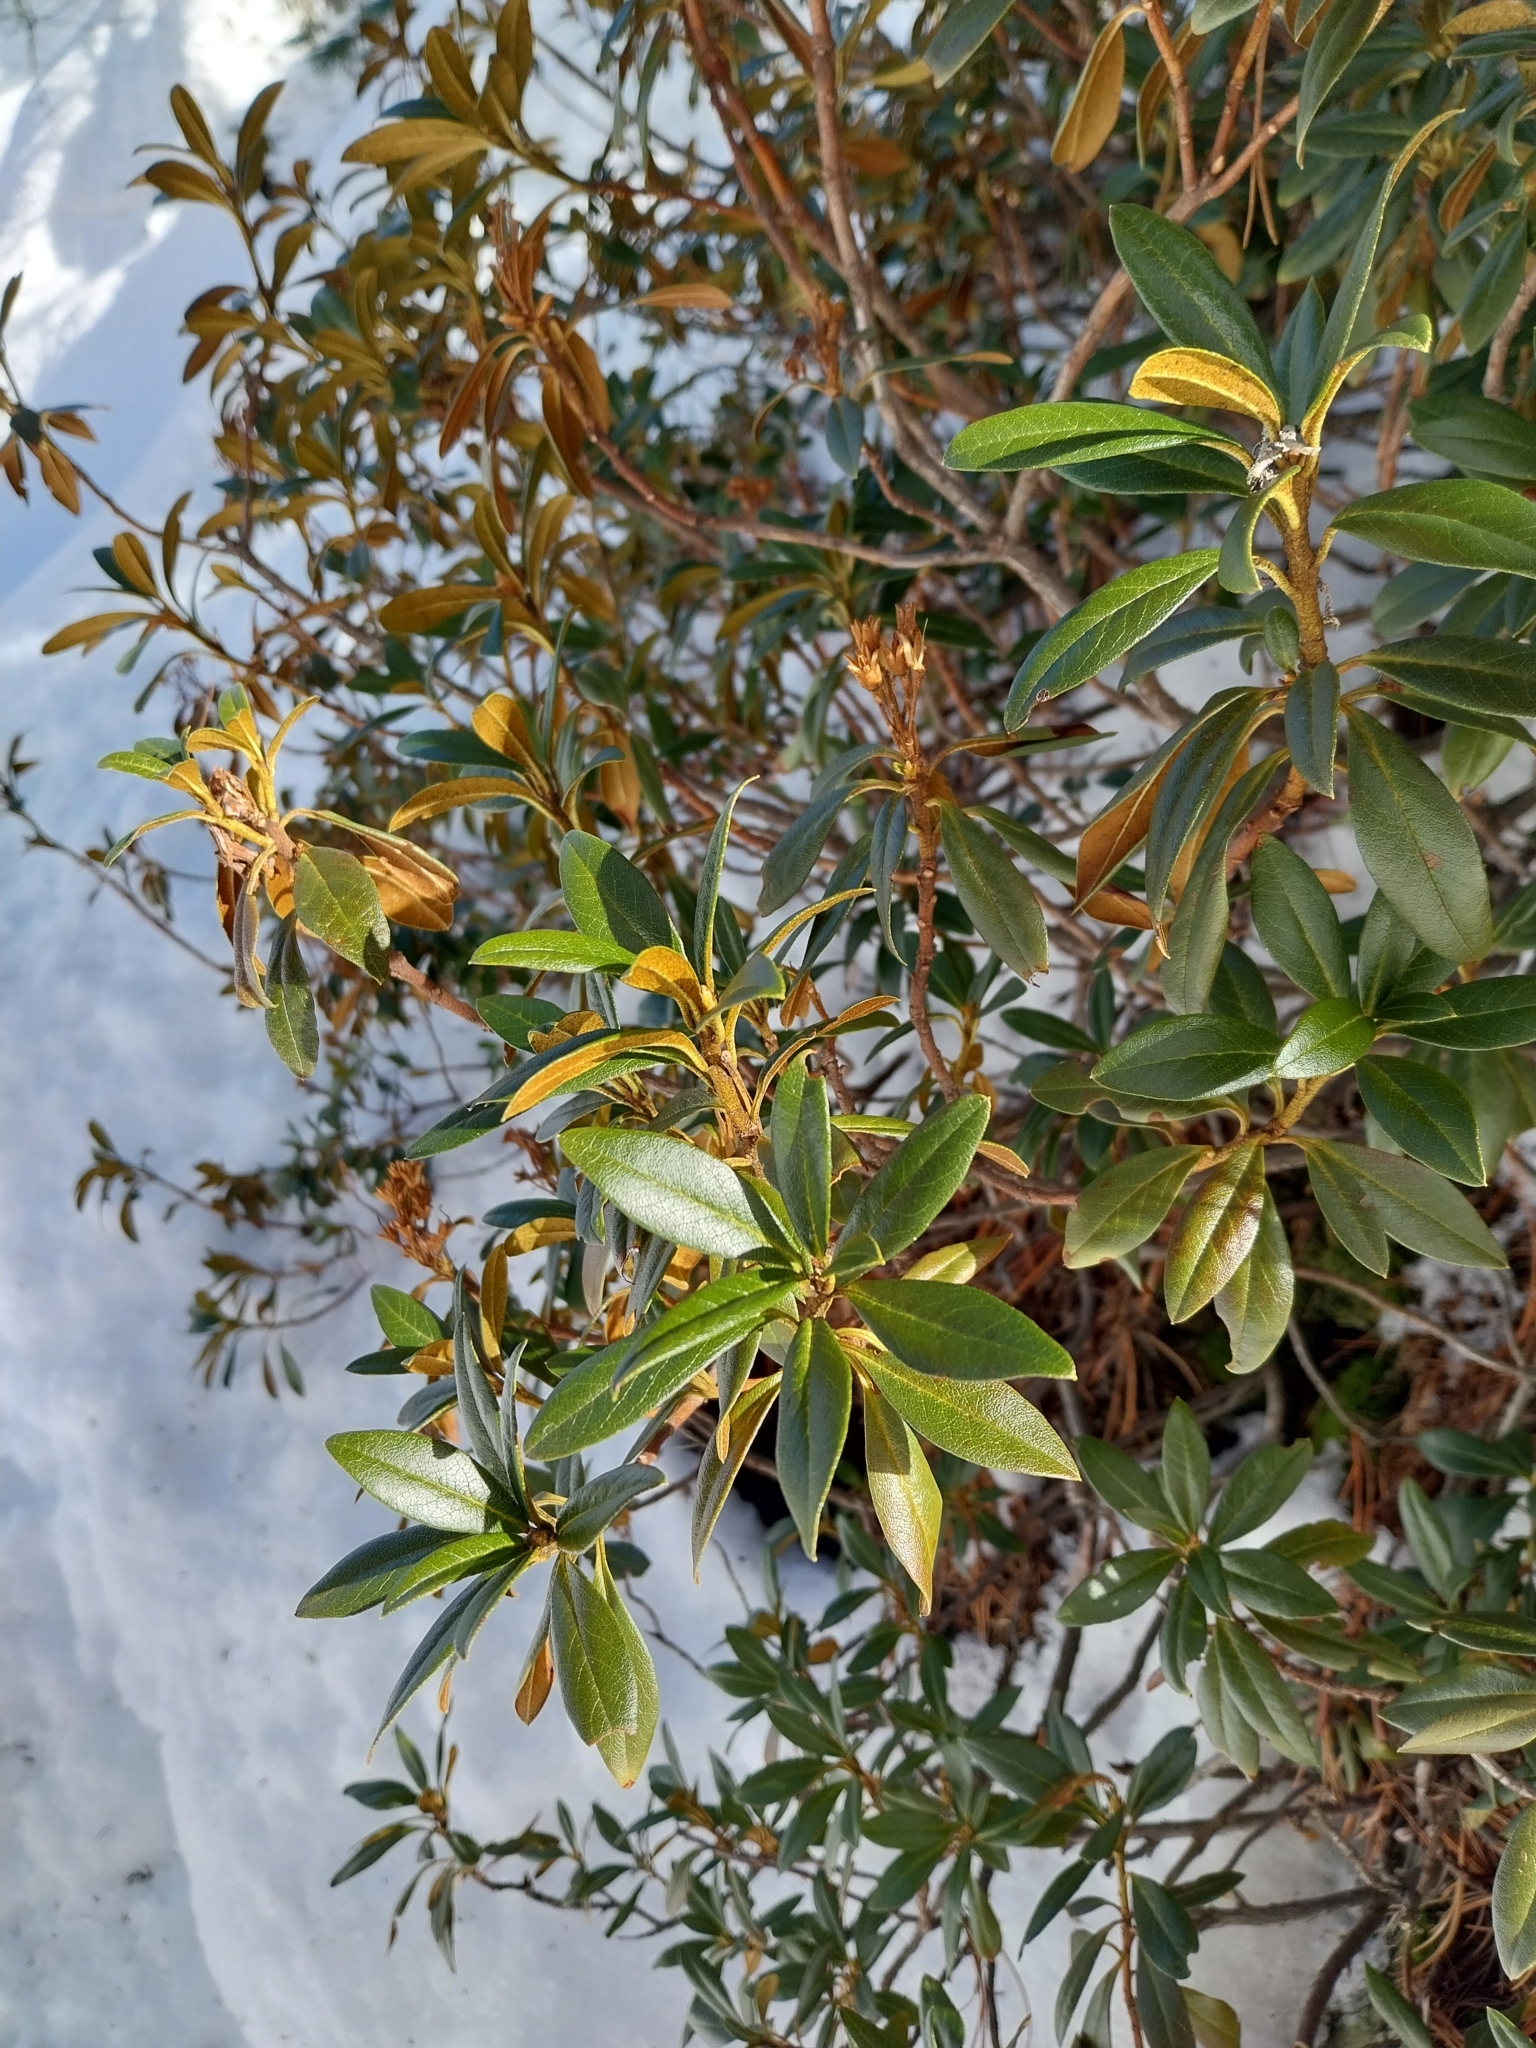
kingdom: Plantae
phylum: Tracheophyta
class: Magnoliopsida
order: Ericales
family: Ericaceae
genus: Rhododendron
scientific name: Rhododendron ferrugineum
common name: Alpenrose
